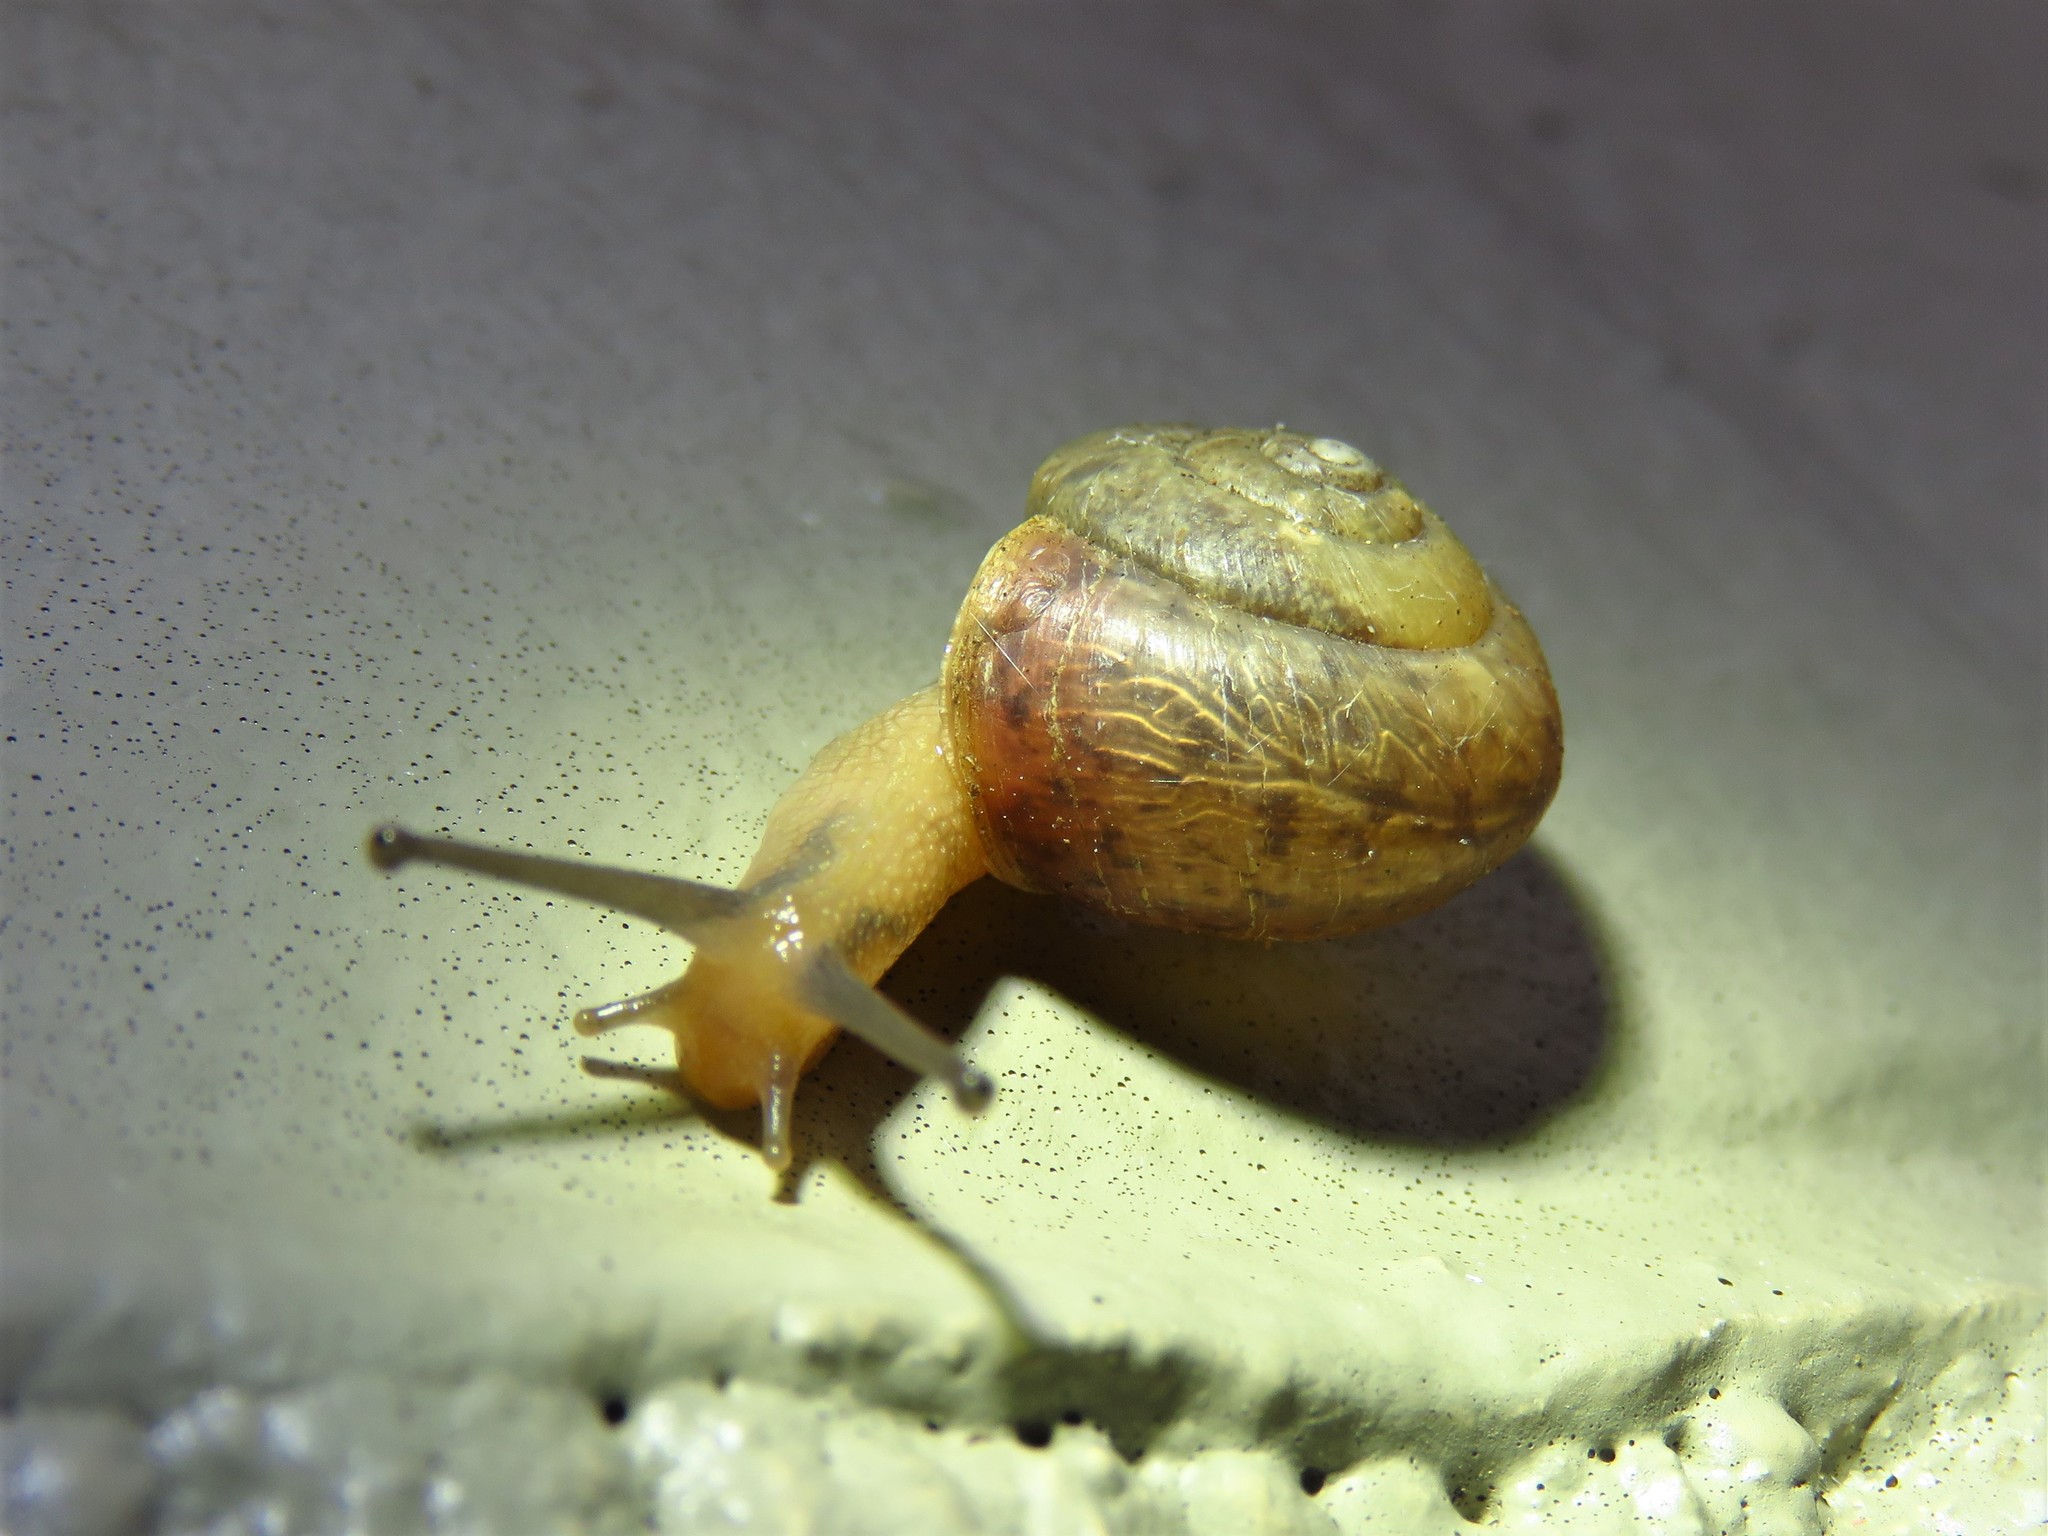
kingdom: Animalia
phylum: Mollusca
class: Gastropoda
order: Stylommatophora
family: Camaenidae
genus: Bradybaena
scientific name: Bradybaena similaris
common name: Asian trampsnail
